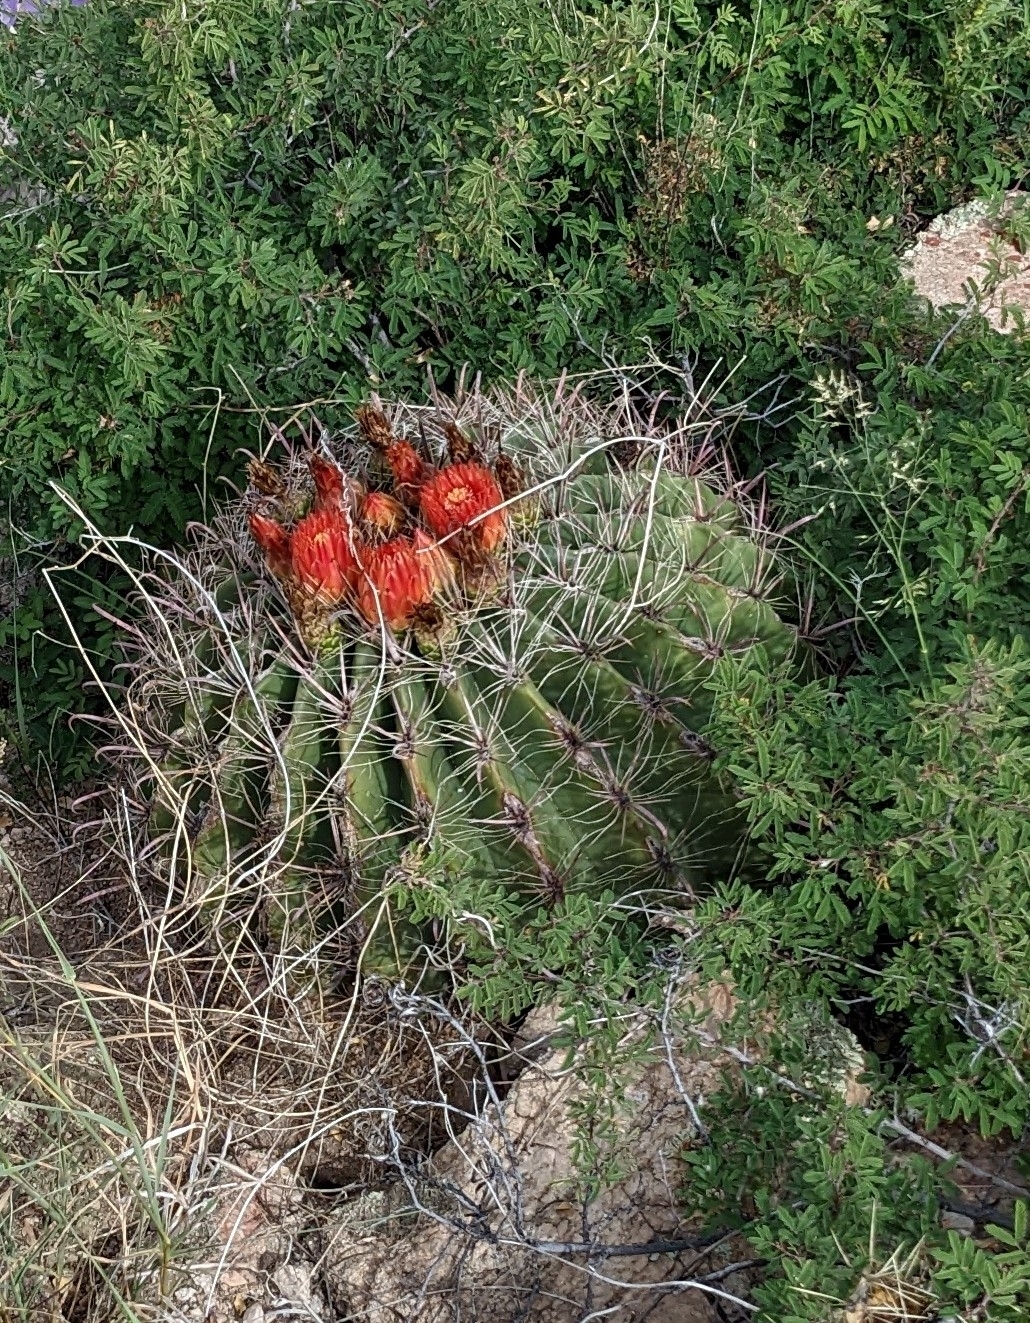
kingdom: Plantae
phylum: Tracheophyta
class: Magnoliopsida
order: Caryophyllales
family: Cactaceae
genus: Ferocactus
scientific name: Ferocactus wislizeni
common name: Candy barrel cactus
